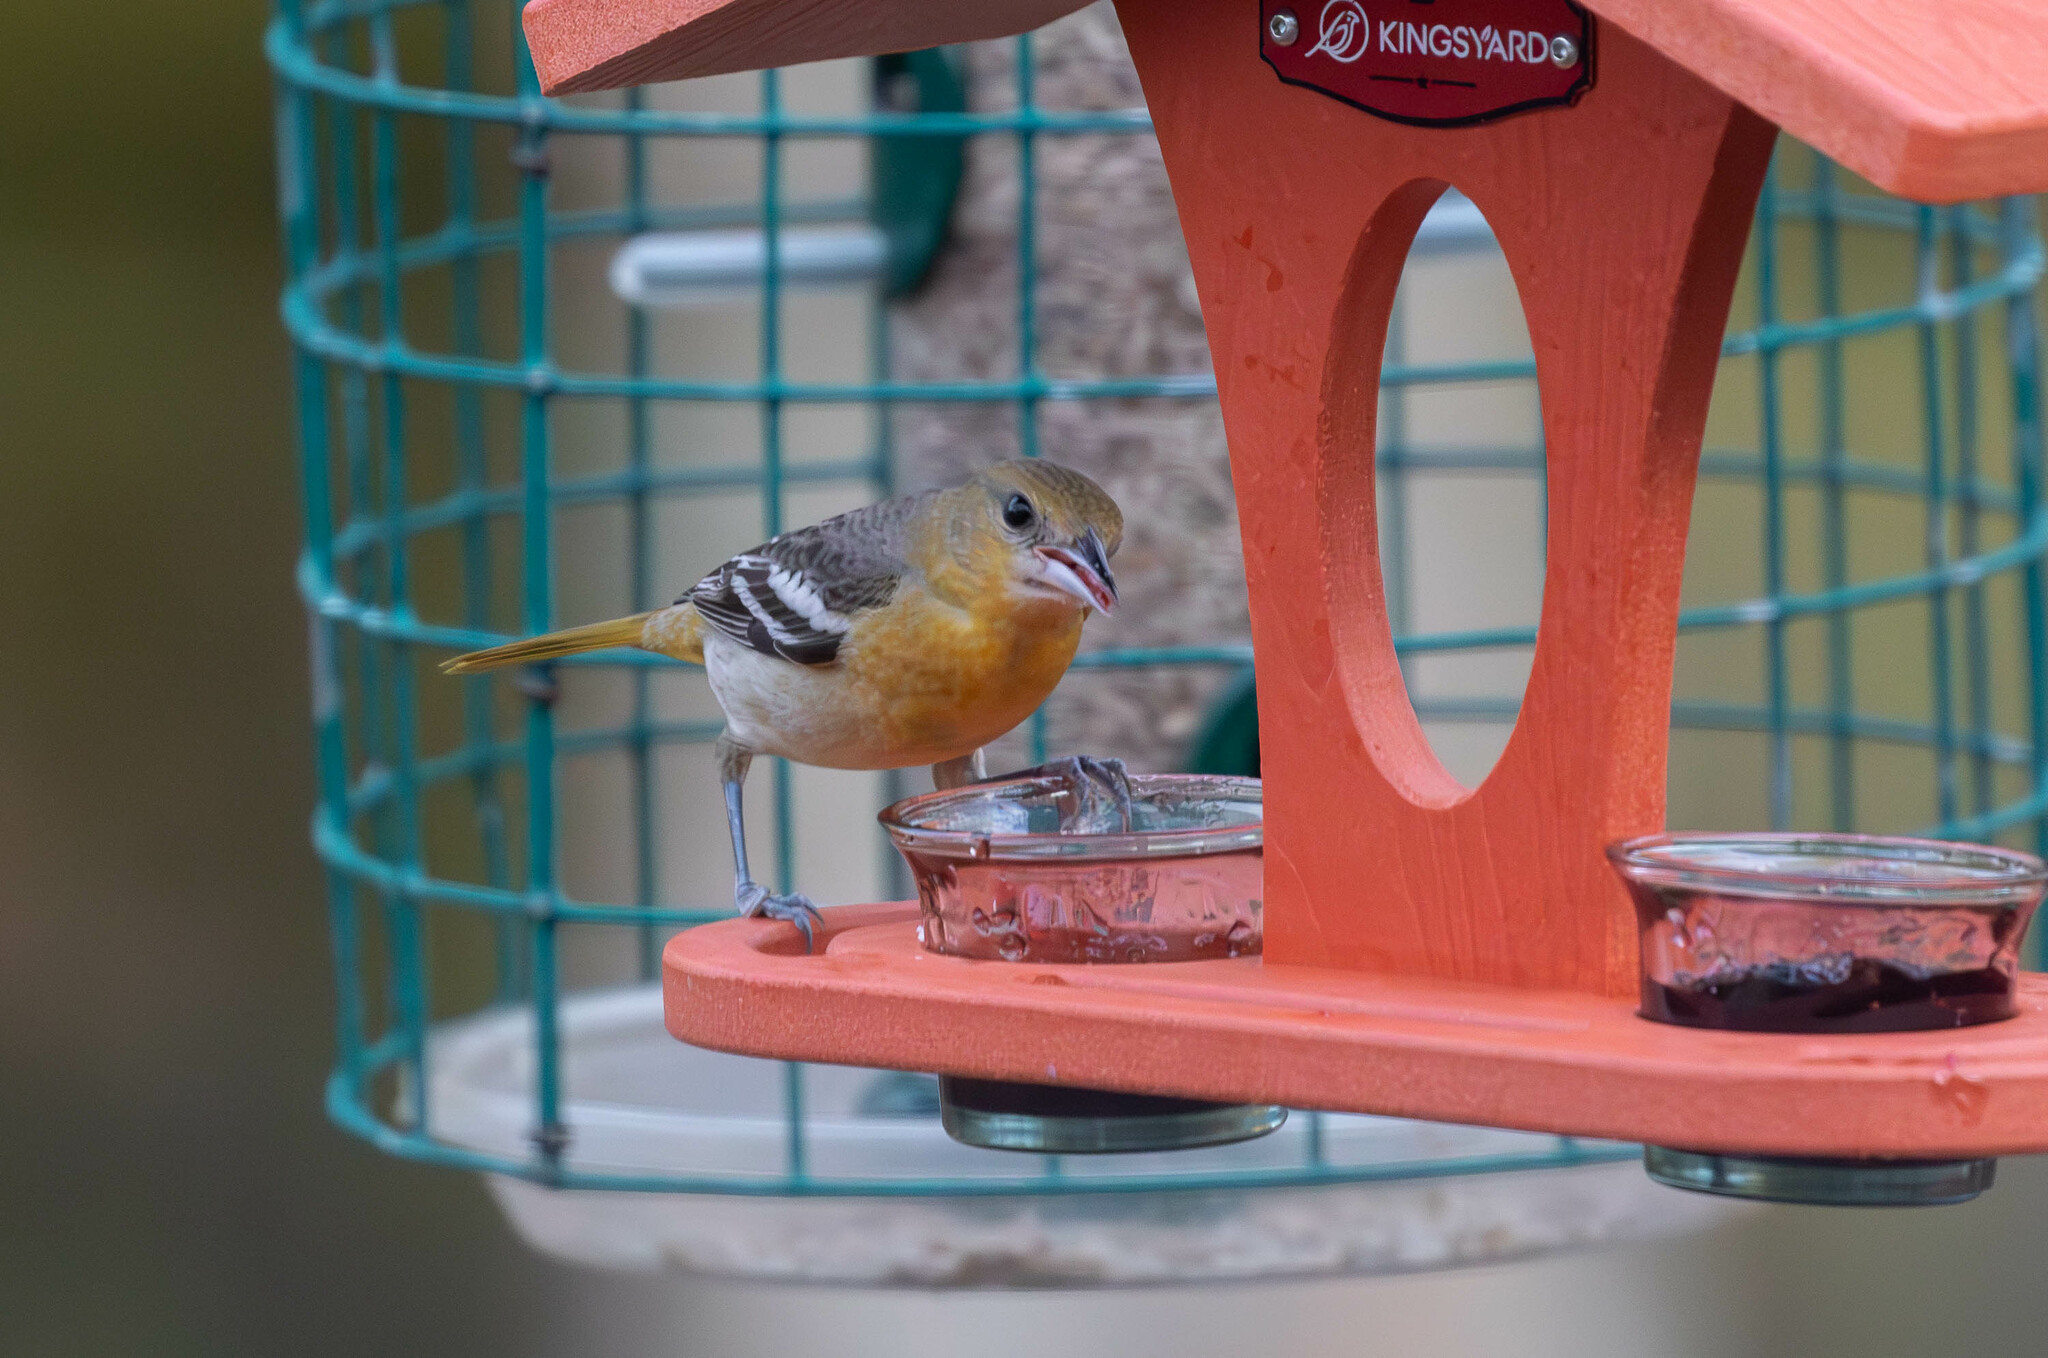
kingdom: Animalia
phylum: Chordata
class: Aves
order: Passeriformes
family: Icteridae
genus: Icterus
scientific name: Icterus galbula
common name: Baltimore oriole
